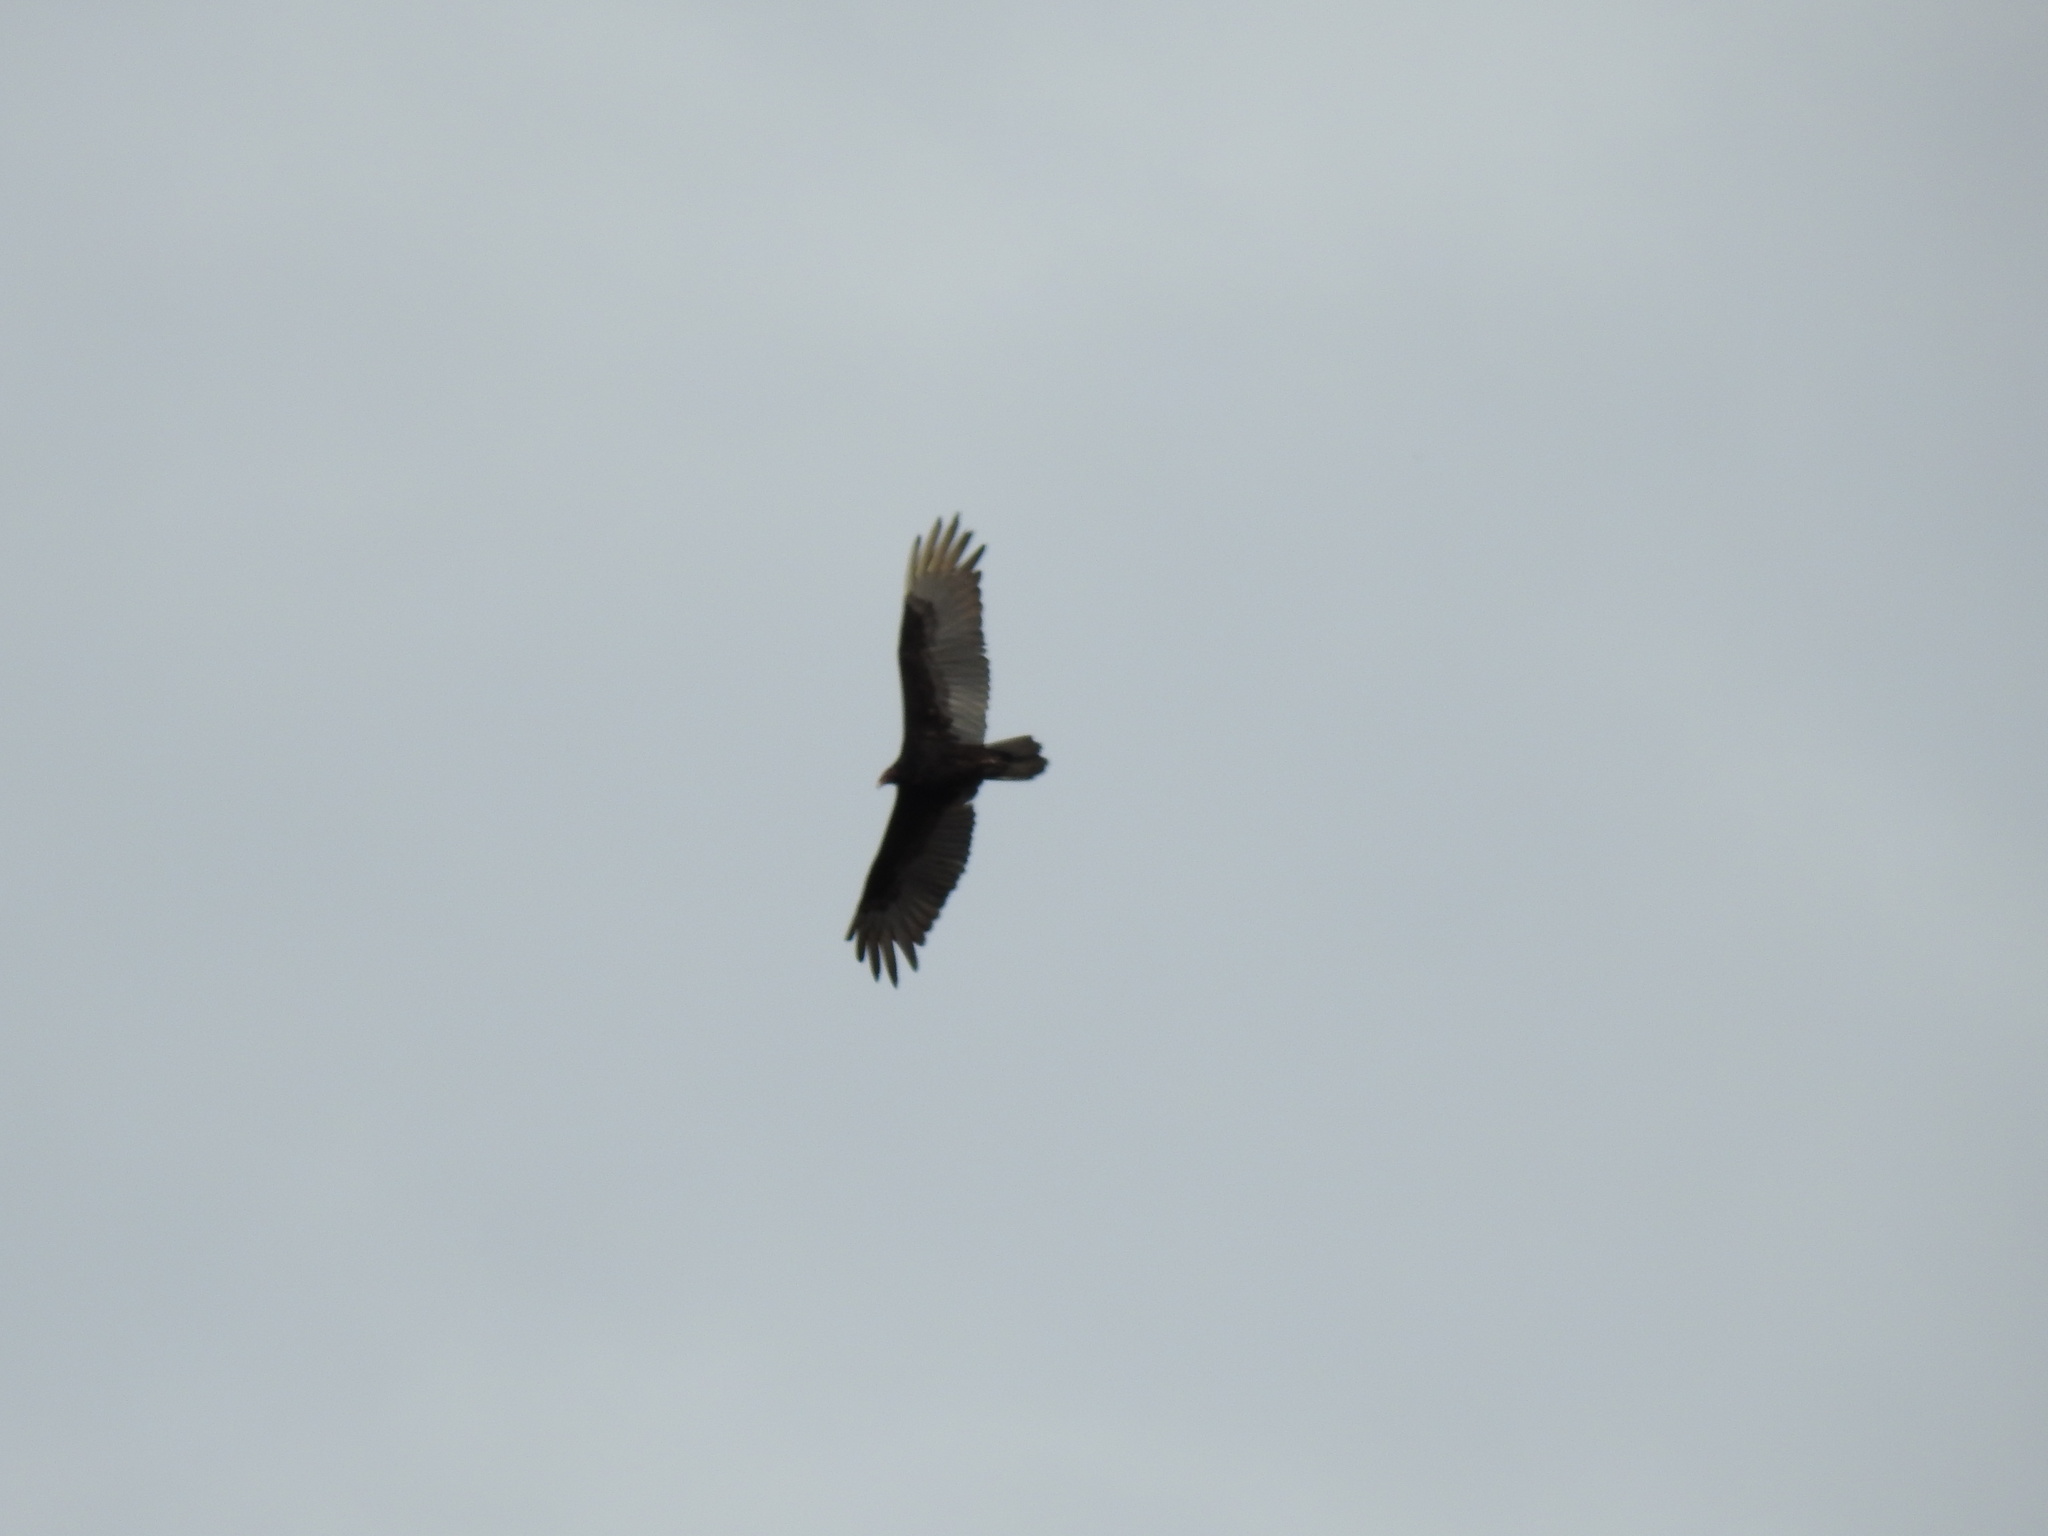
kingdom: Animalia
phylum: Chordata
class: Aves
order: Accipitriformes
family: Cathartidae
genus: Cathartes
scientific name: Cathartes aura
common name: Turkey vulture
